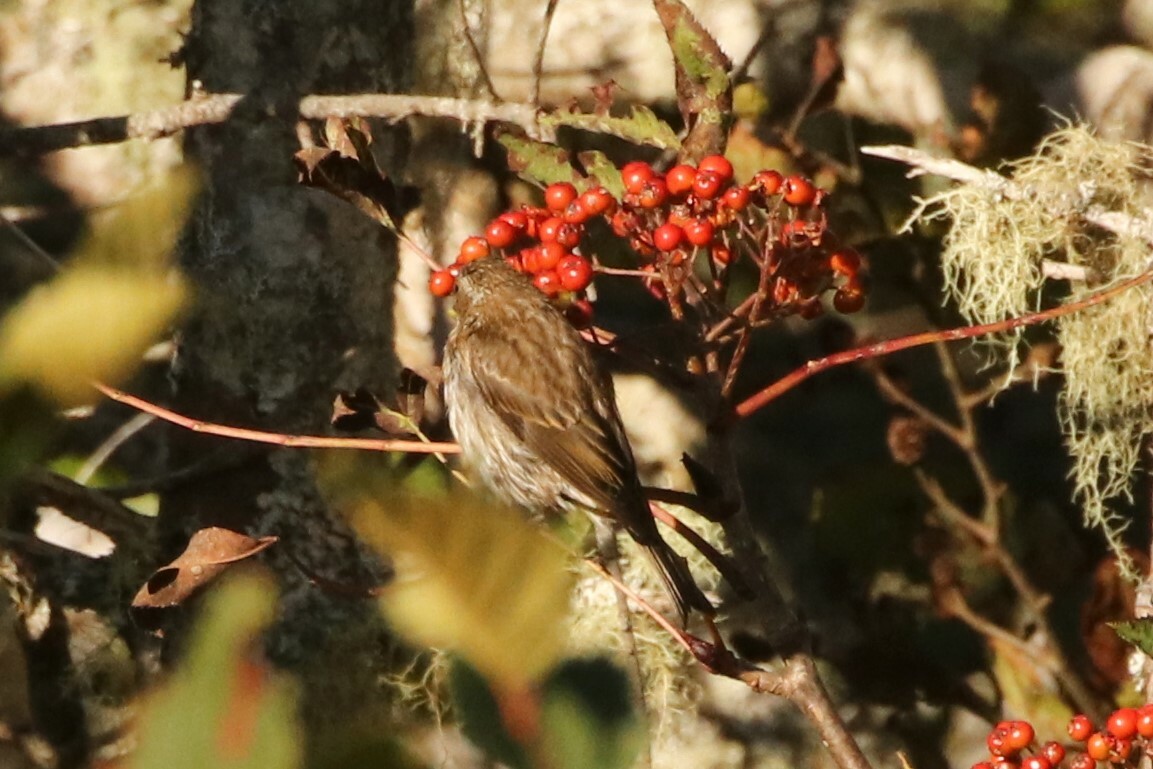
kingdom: Animalia
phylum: Chordata
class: Aves
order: Passeriformes
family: Fringillidae
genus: Haemorhous
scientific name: Haemorhous purpureus
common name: Purple finch
